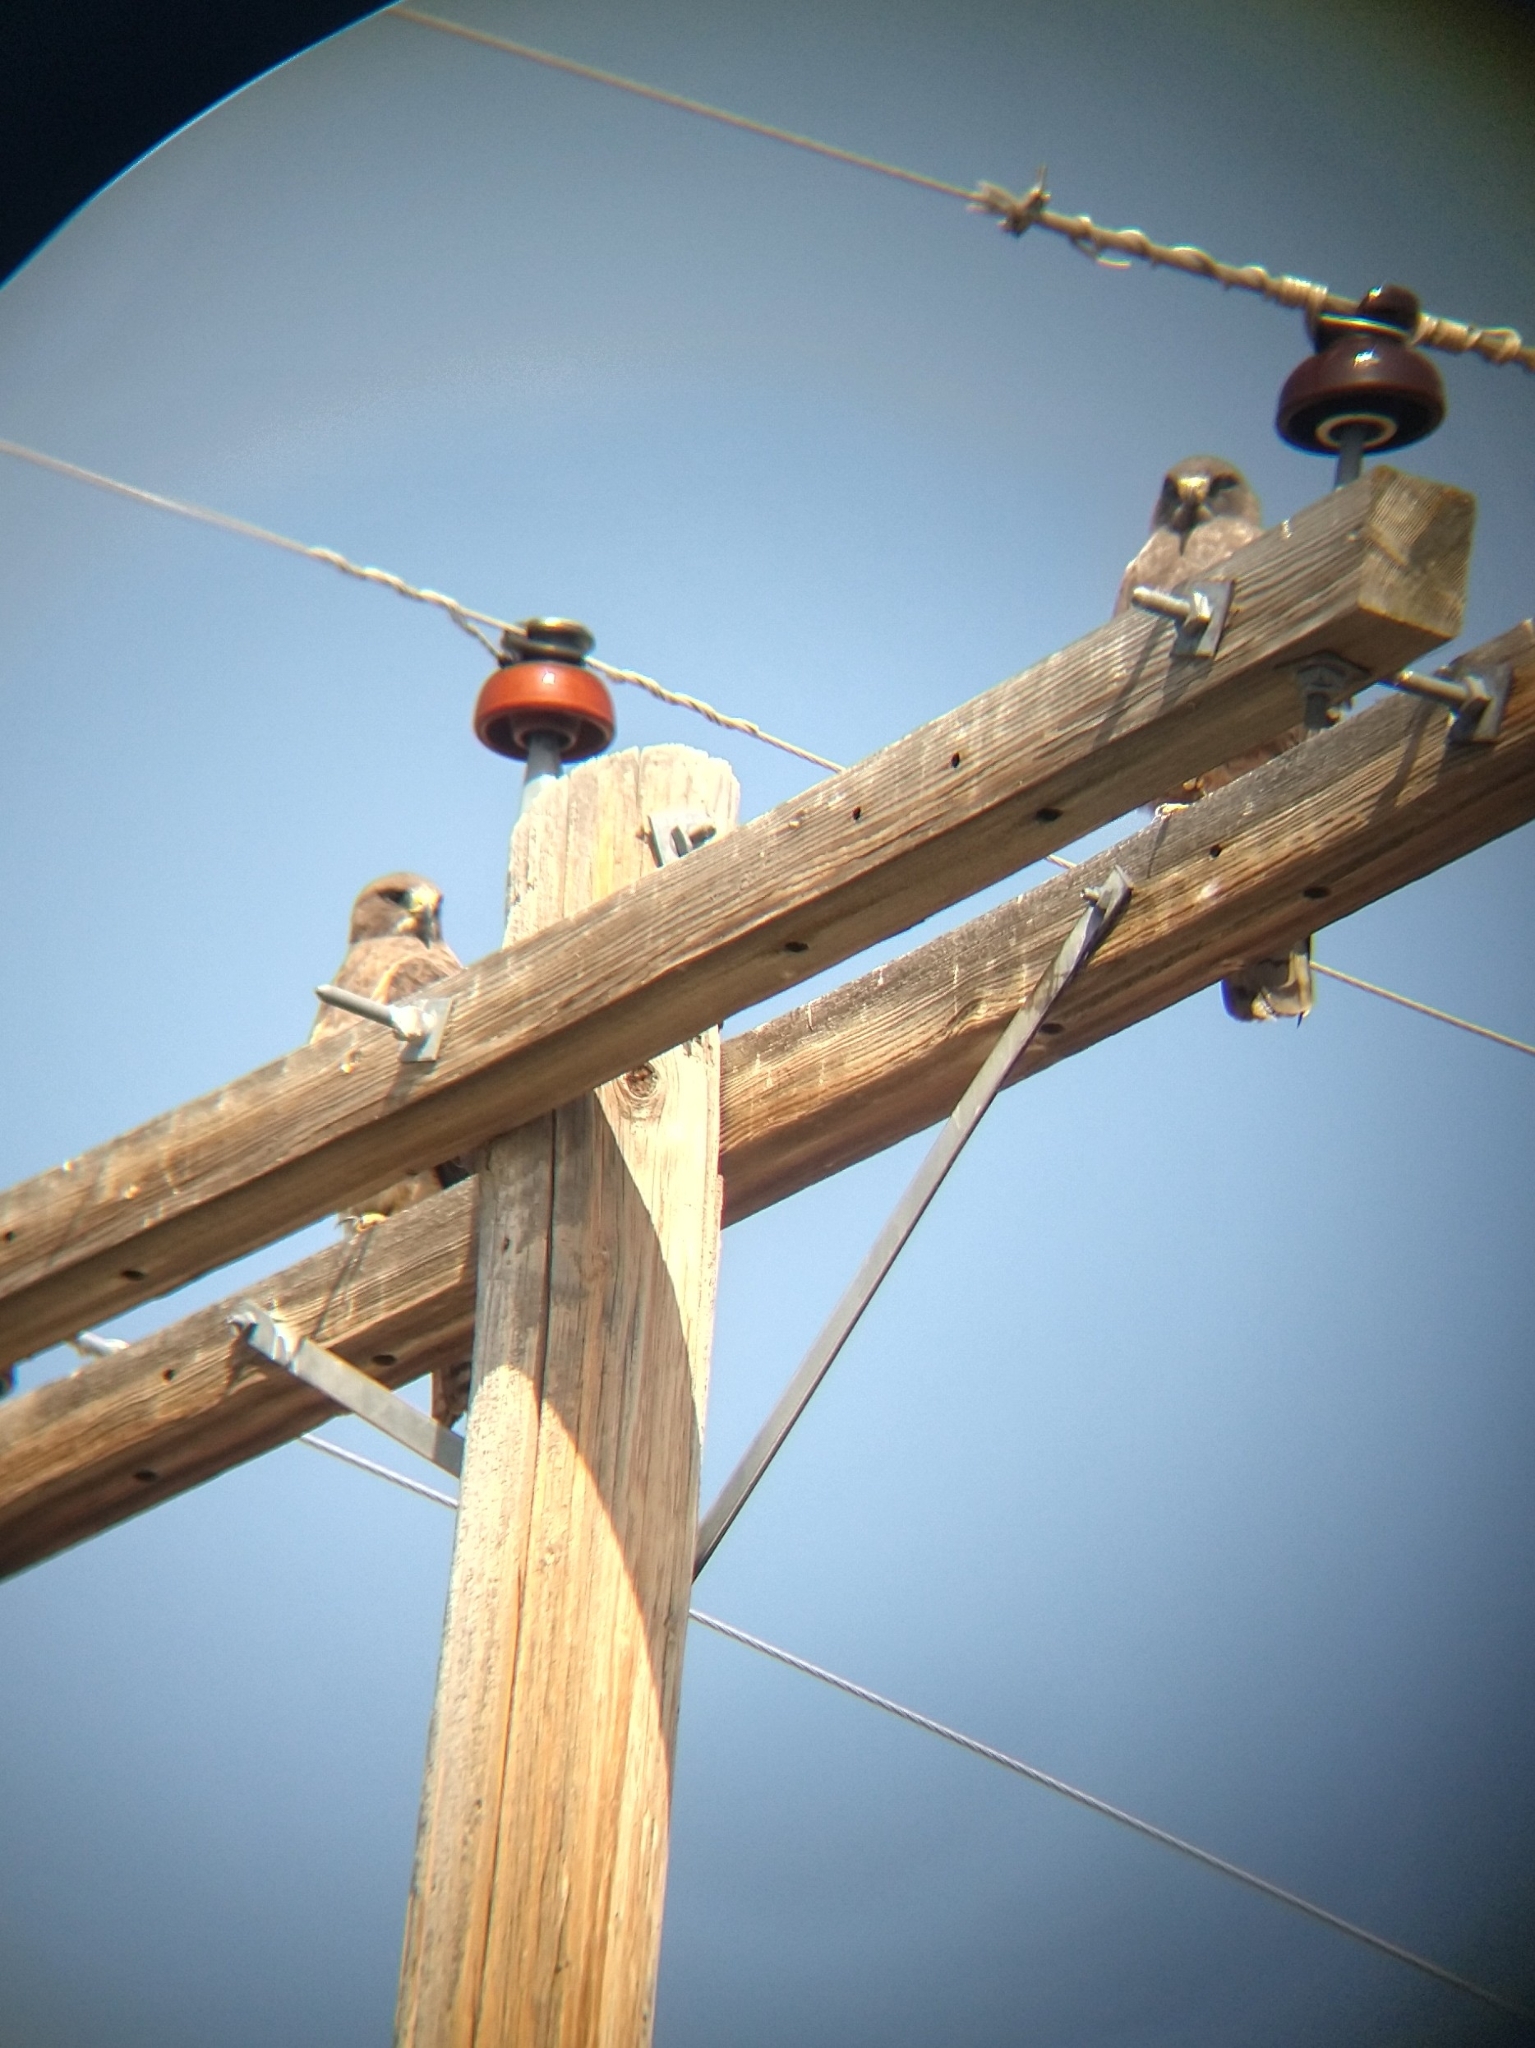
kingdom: Animalia
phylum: Chordata
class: Aves
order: Accipitriformes
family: Accipitridae
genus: Buteo
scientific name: Buteo swainsoni
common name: Swainson's hawk
